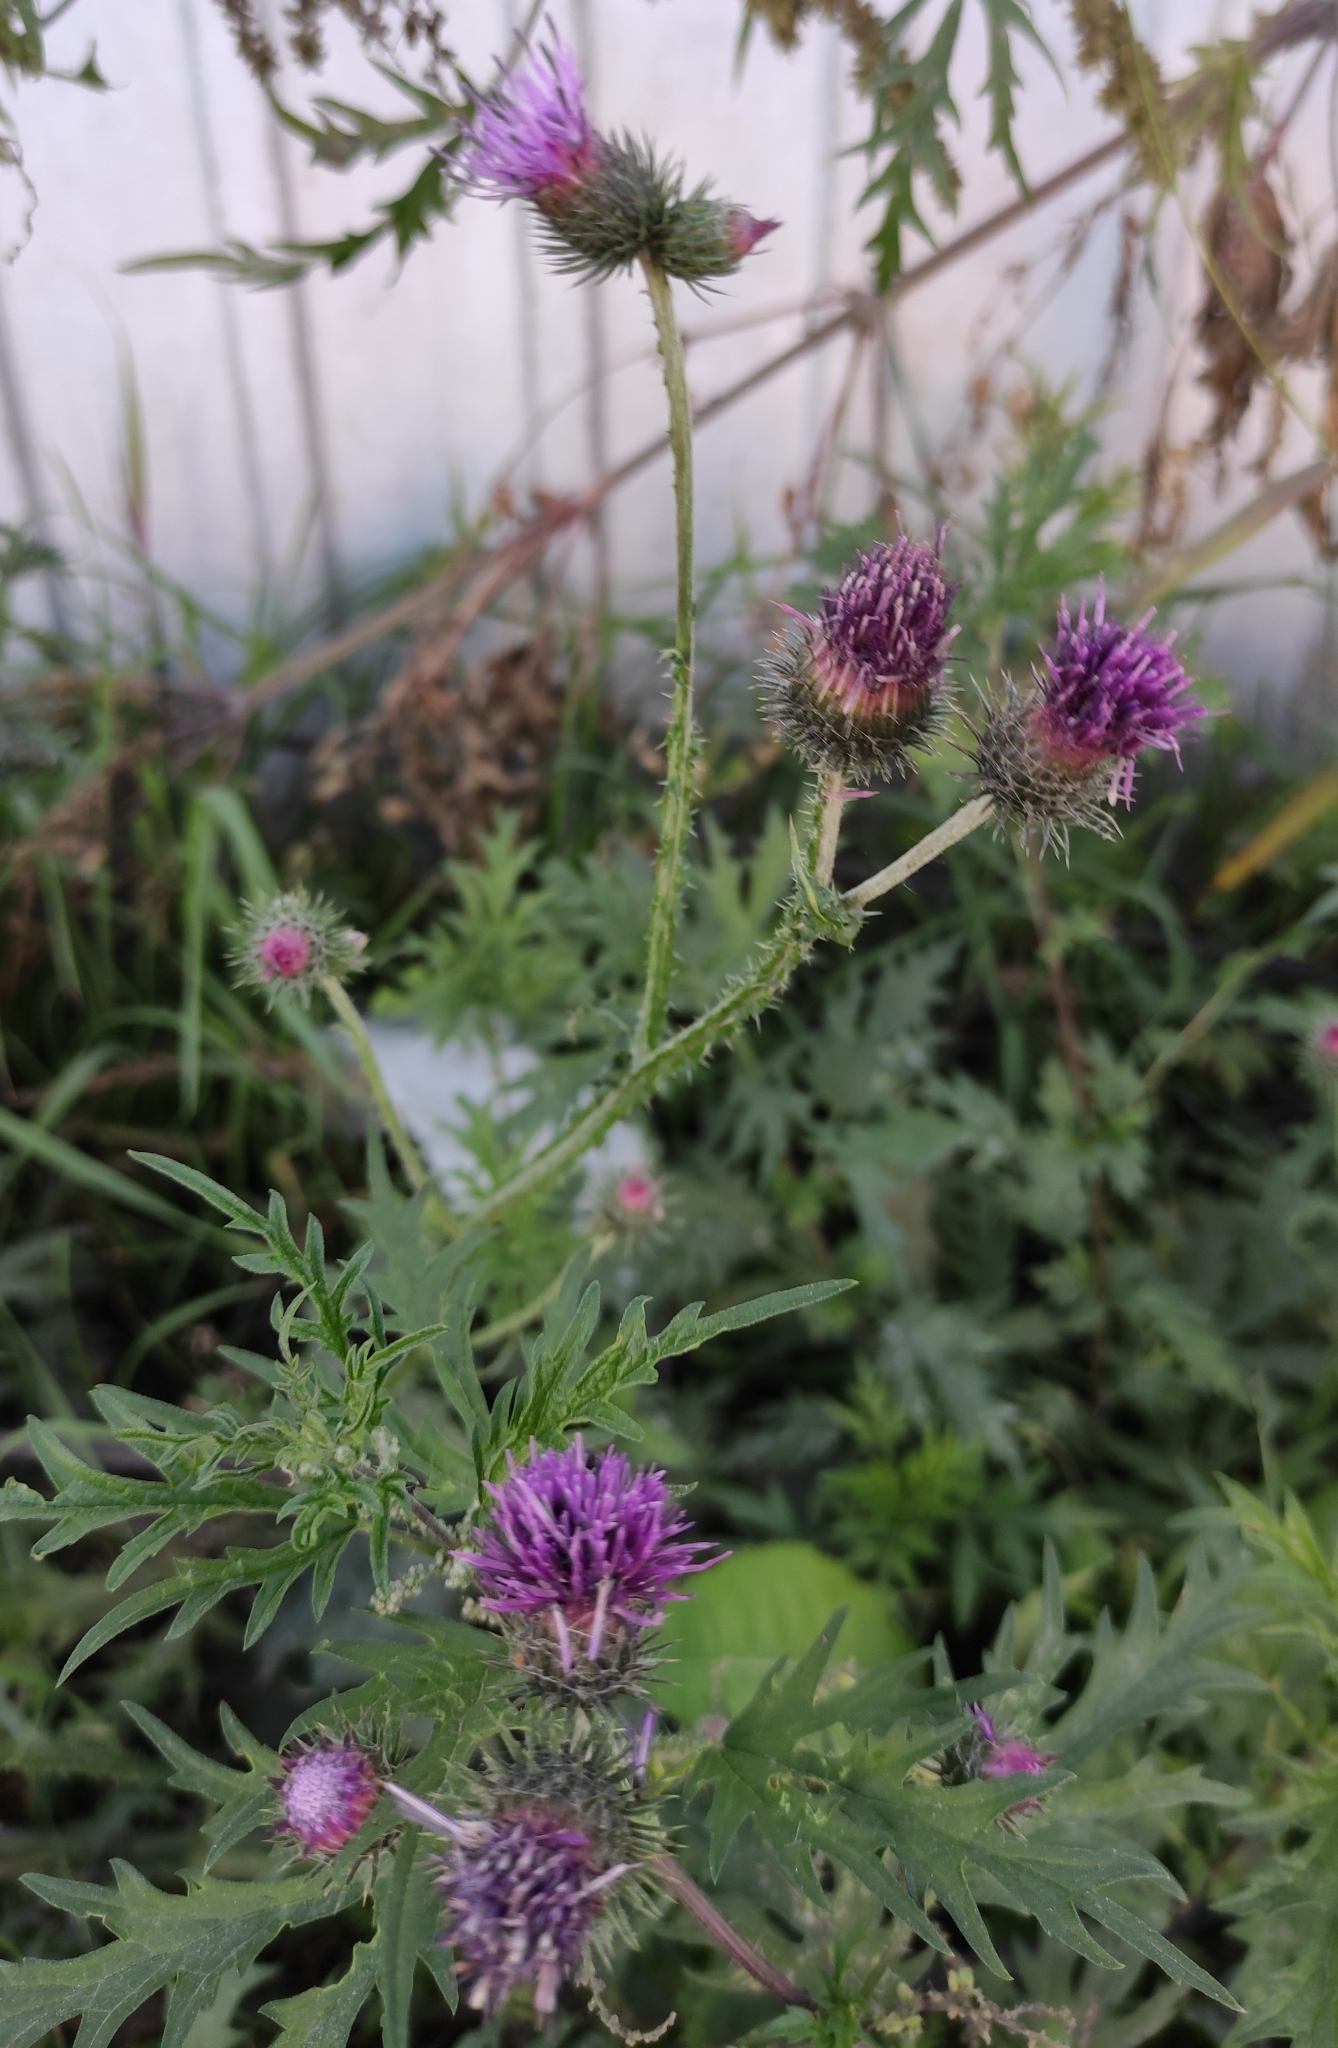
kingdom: Plantae
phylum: Tracheophyta
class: Magnoliopsida
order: Asterales
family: Asteraceae
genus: Carduus
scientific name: Carduus crispus
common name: Welted thistle
